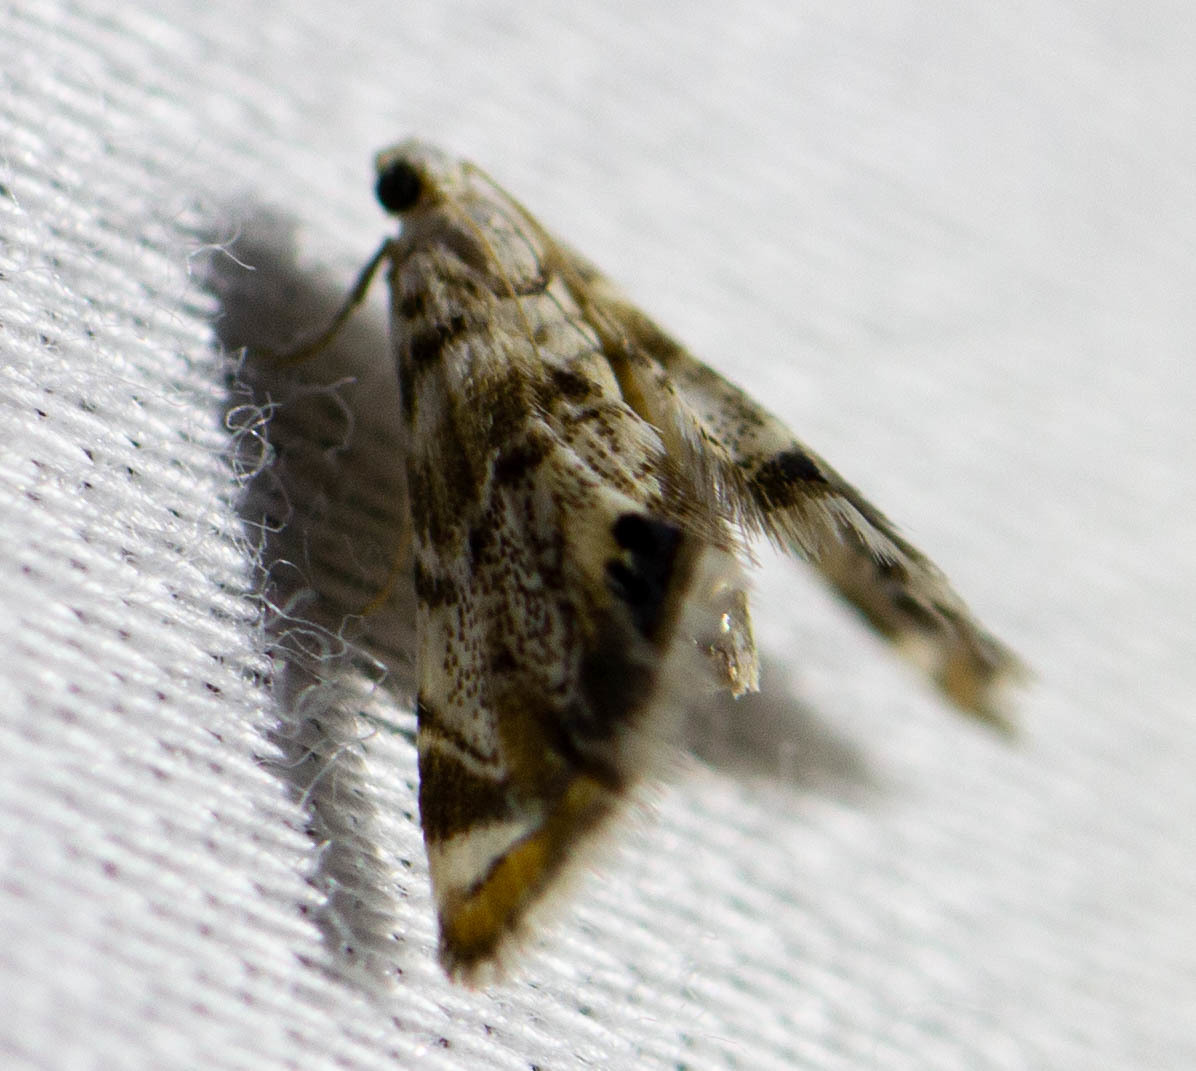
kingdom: Animalia
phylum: Arthropoda
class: Insecta
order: Lepidoptera
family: Crambidae
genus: Eoparargyractis
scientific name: Eoparargyractis irroratalis
